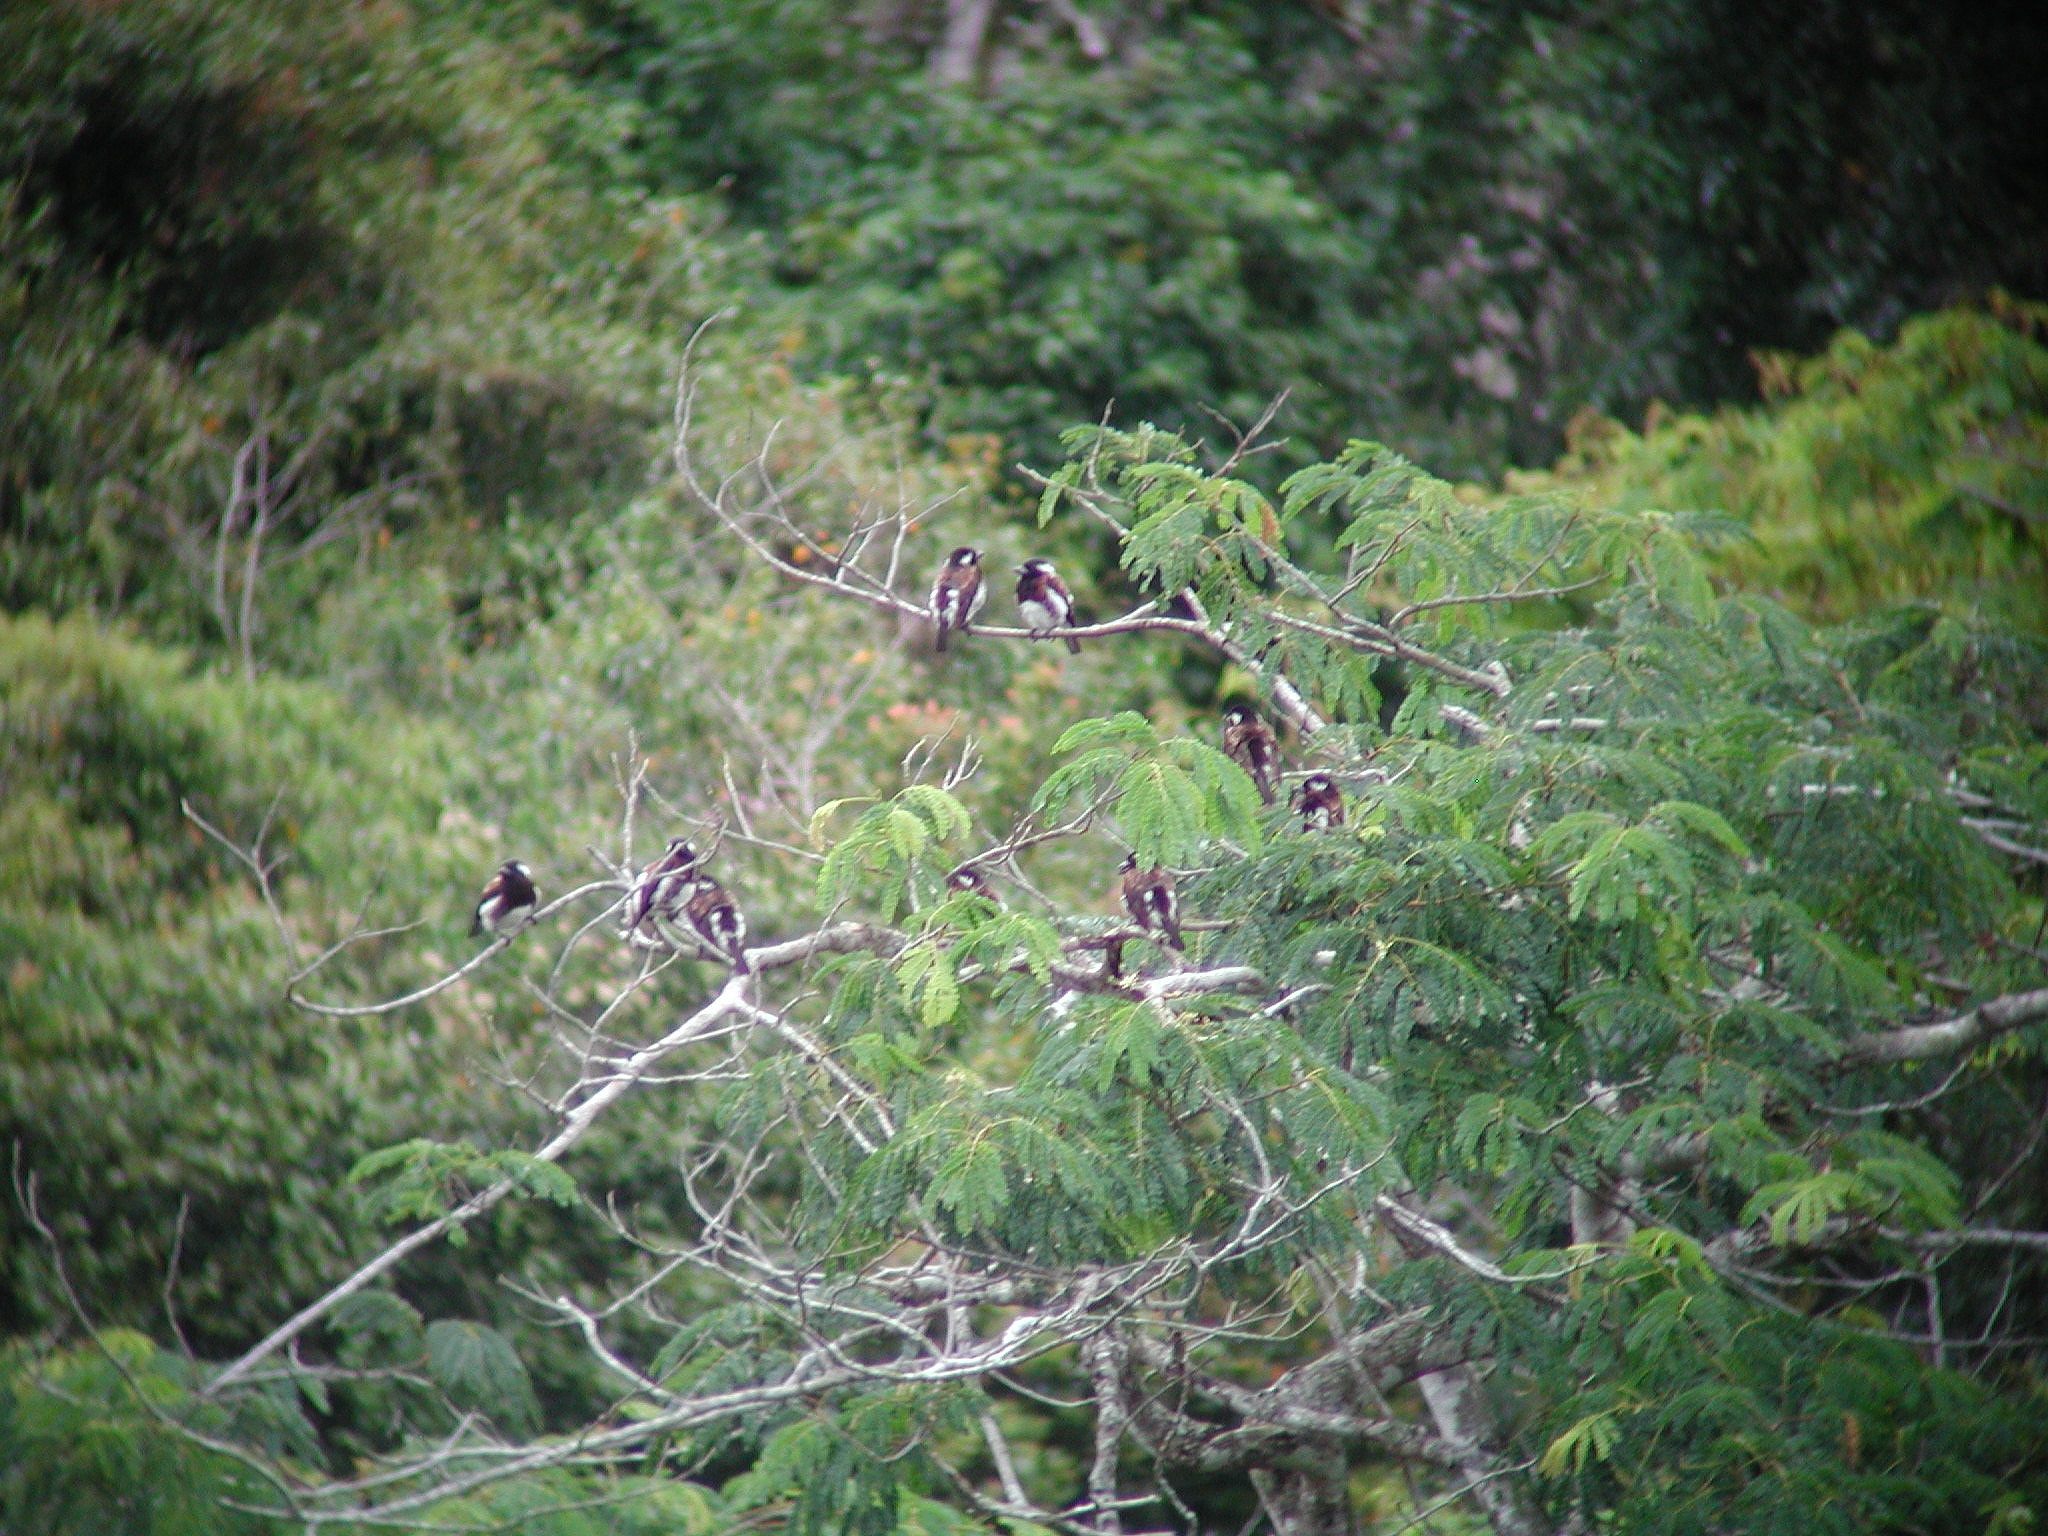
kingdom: Animalia
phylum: Chordata
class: Aves
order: Piciformes
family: Lybiidae
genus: Stactolaema
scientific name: Stactolaema leucotis
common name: White-eared barbet
